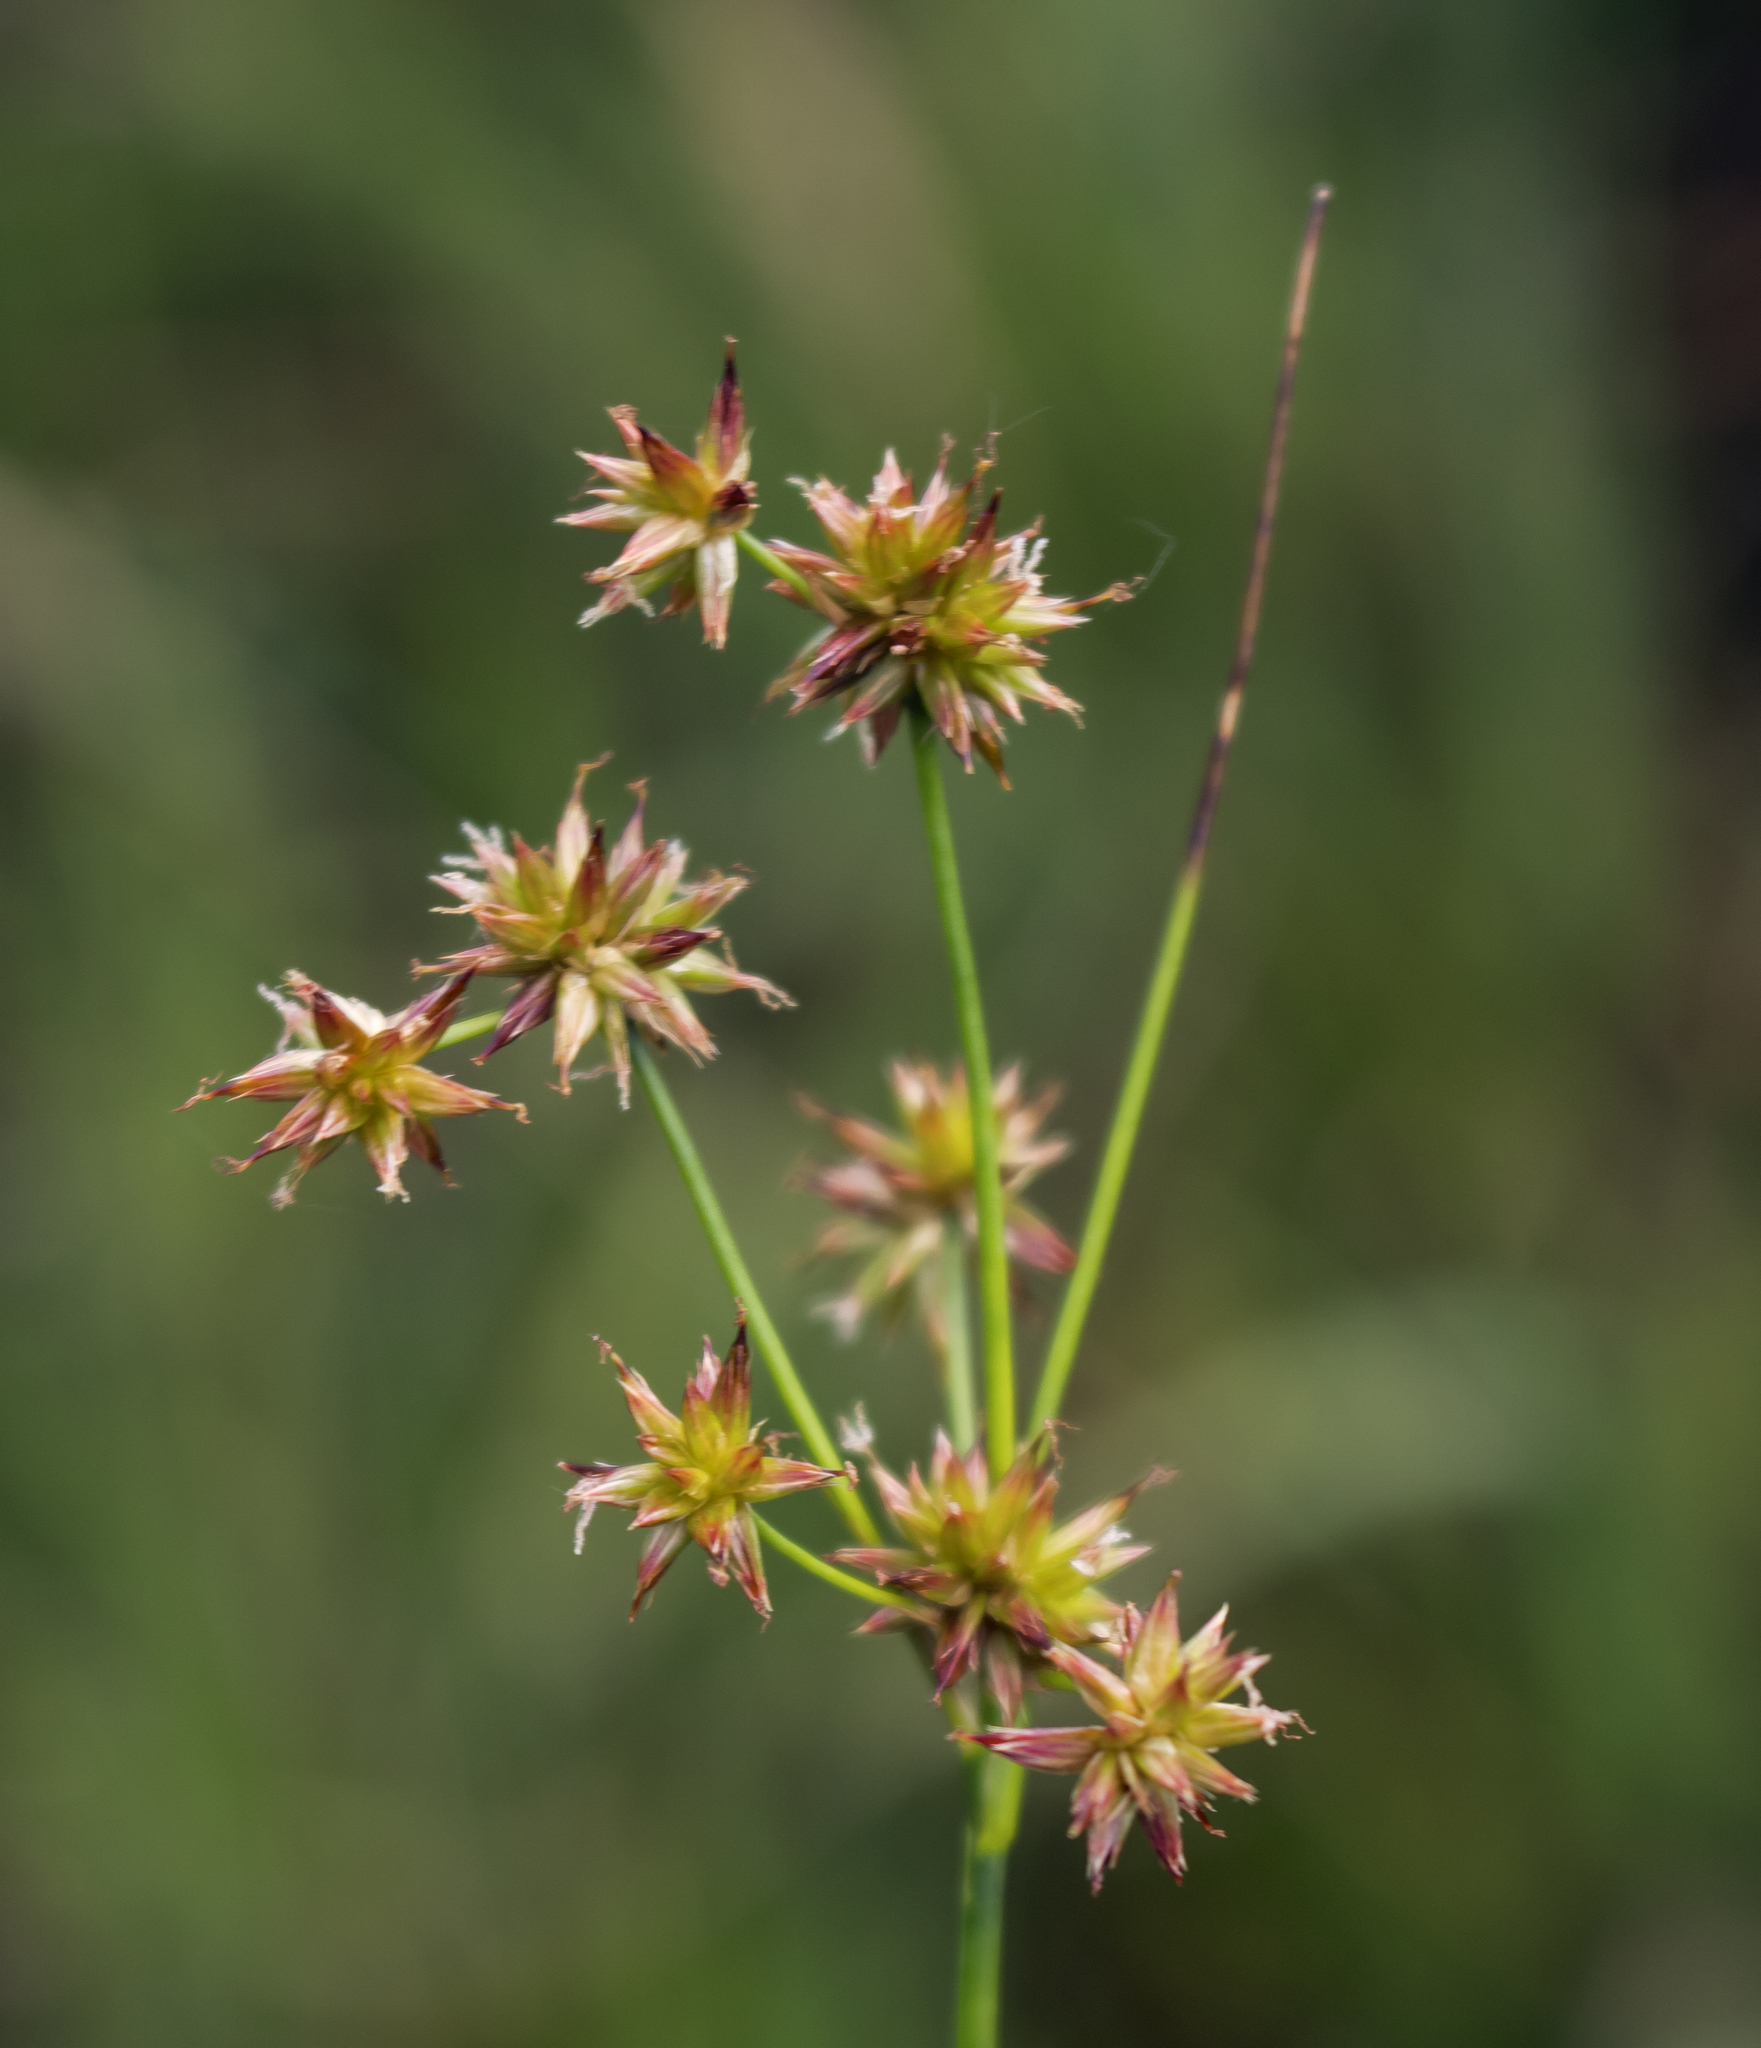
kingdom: Plantae
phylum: Tracheophyta
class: Liliopsida
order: Poales
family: Juncaceae
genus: Juncus
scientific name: Juncus nodosus
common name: Knotted rush
